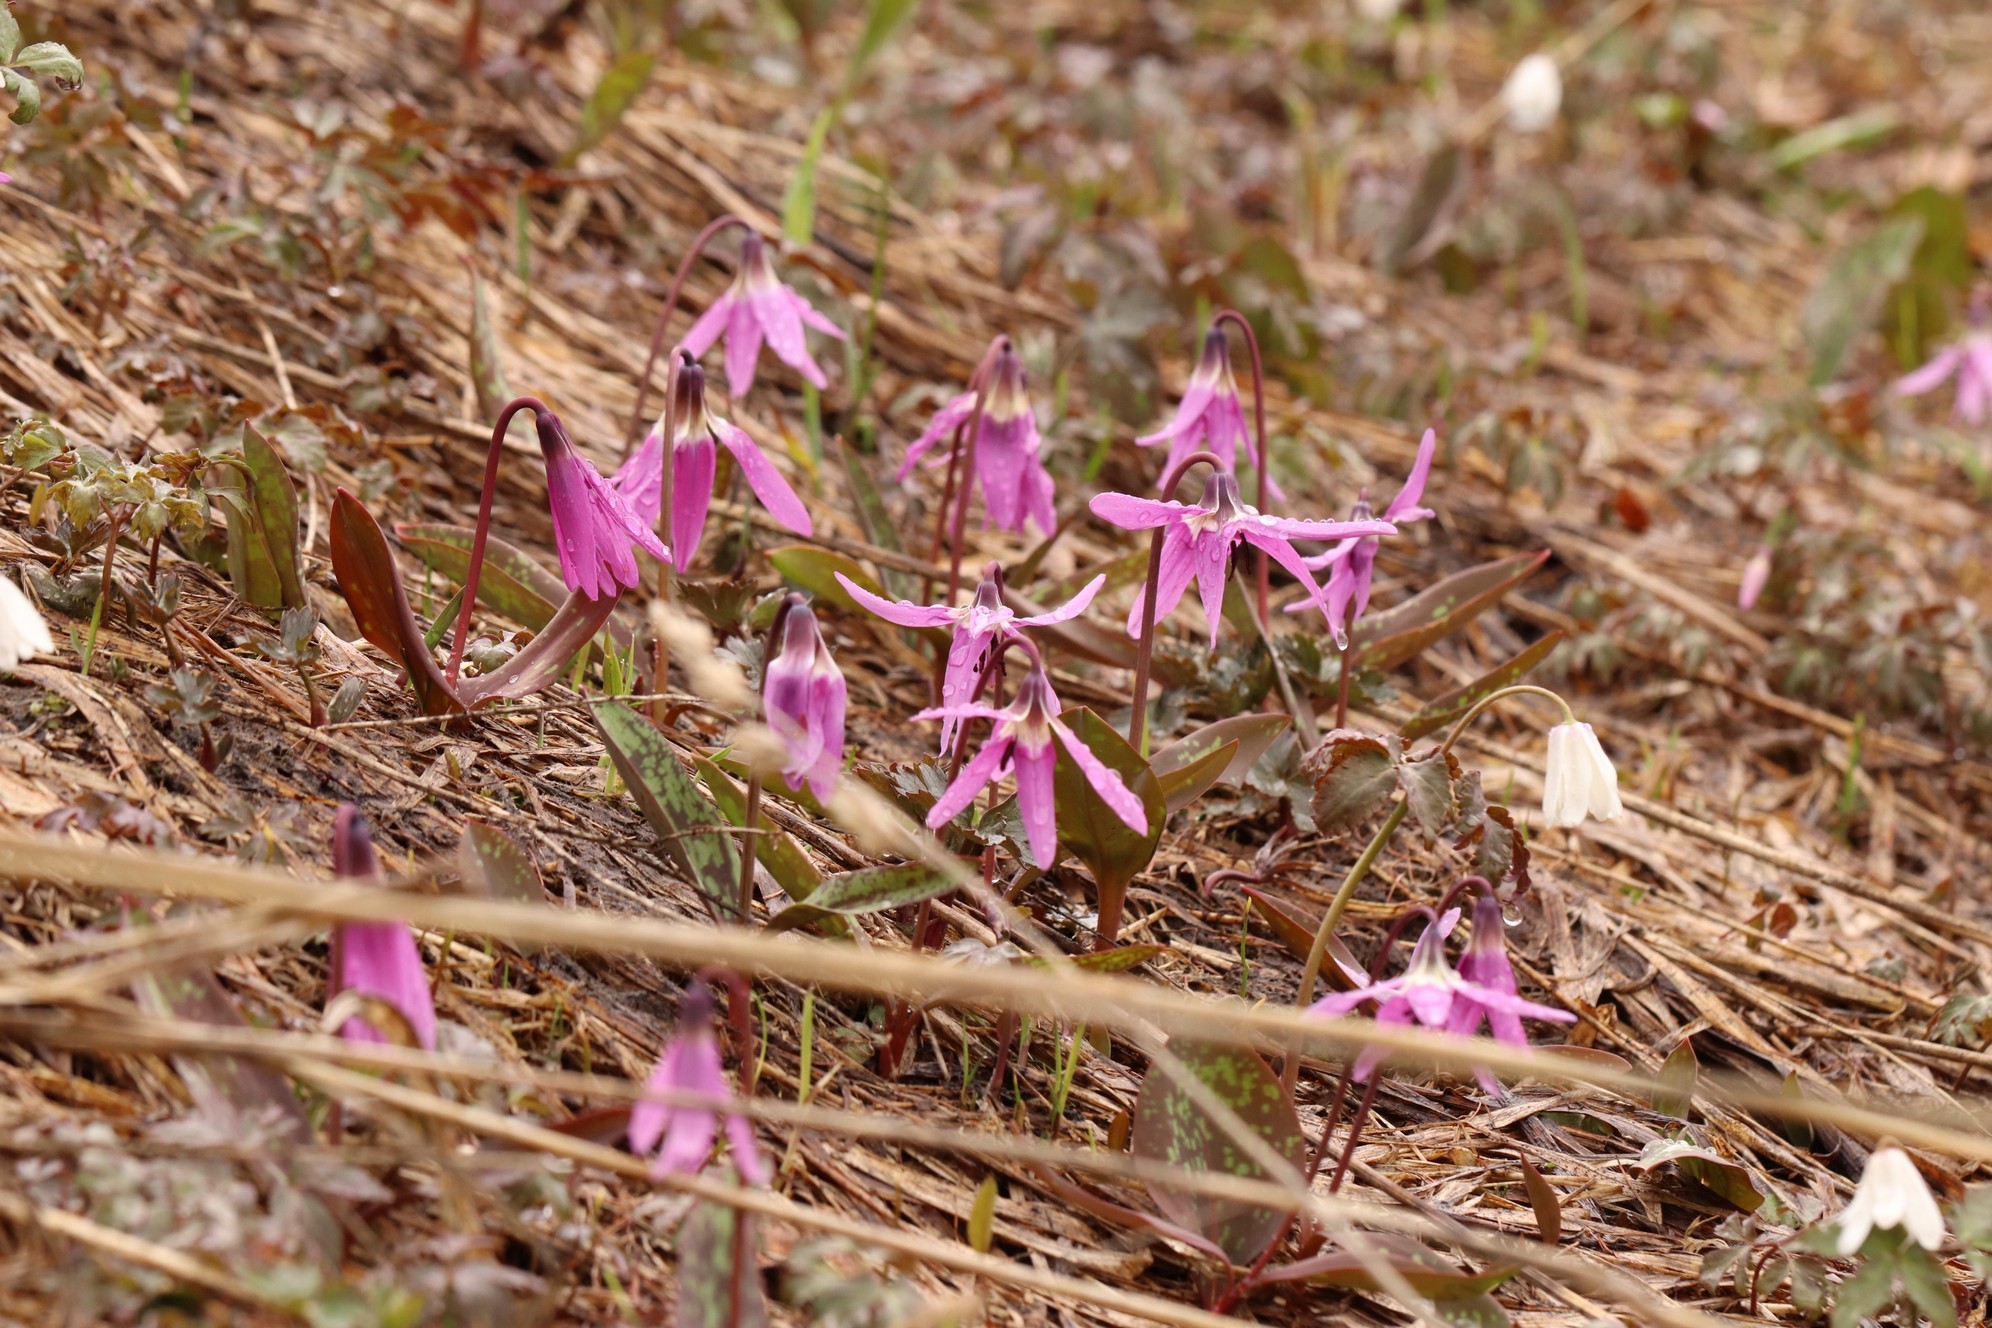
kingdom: Plantae
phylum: Tracheophyta
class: Liliopsida
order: Liliales
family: Liliaceae
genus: Erythronium
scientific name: Erythronium sulevii
